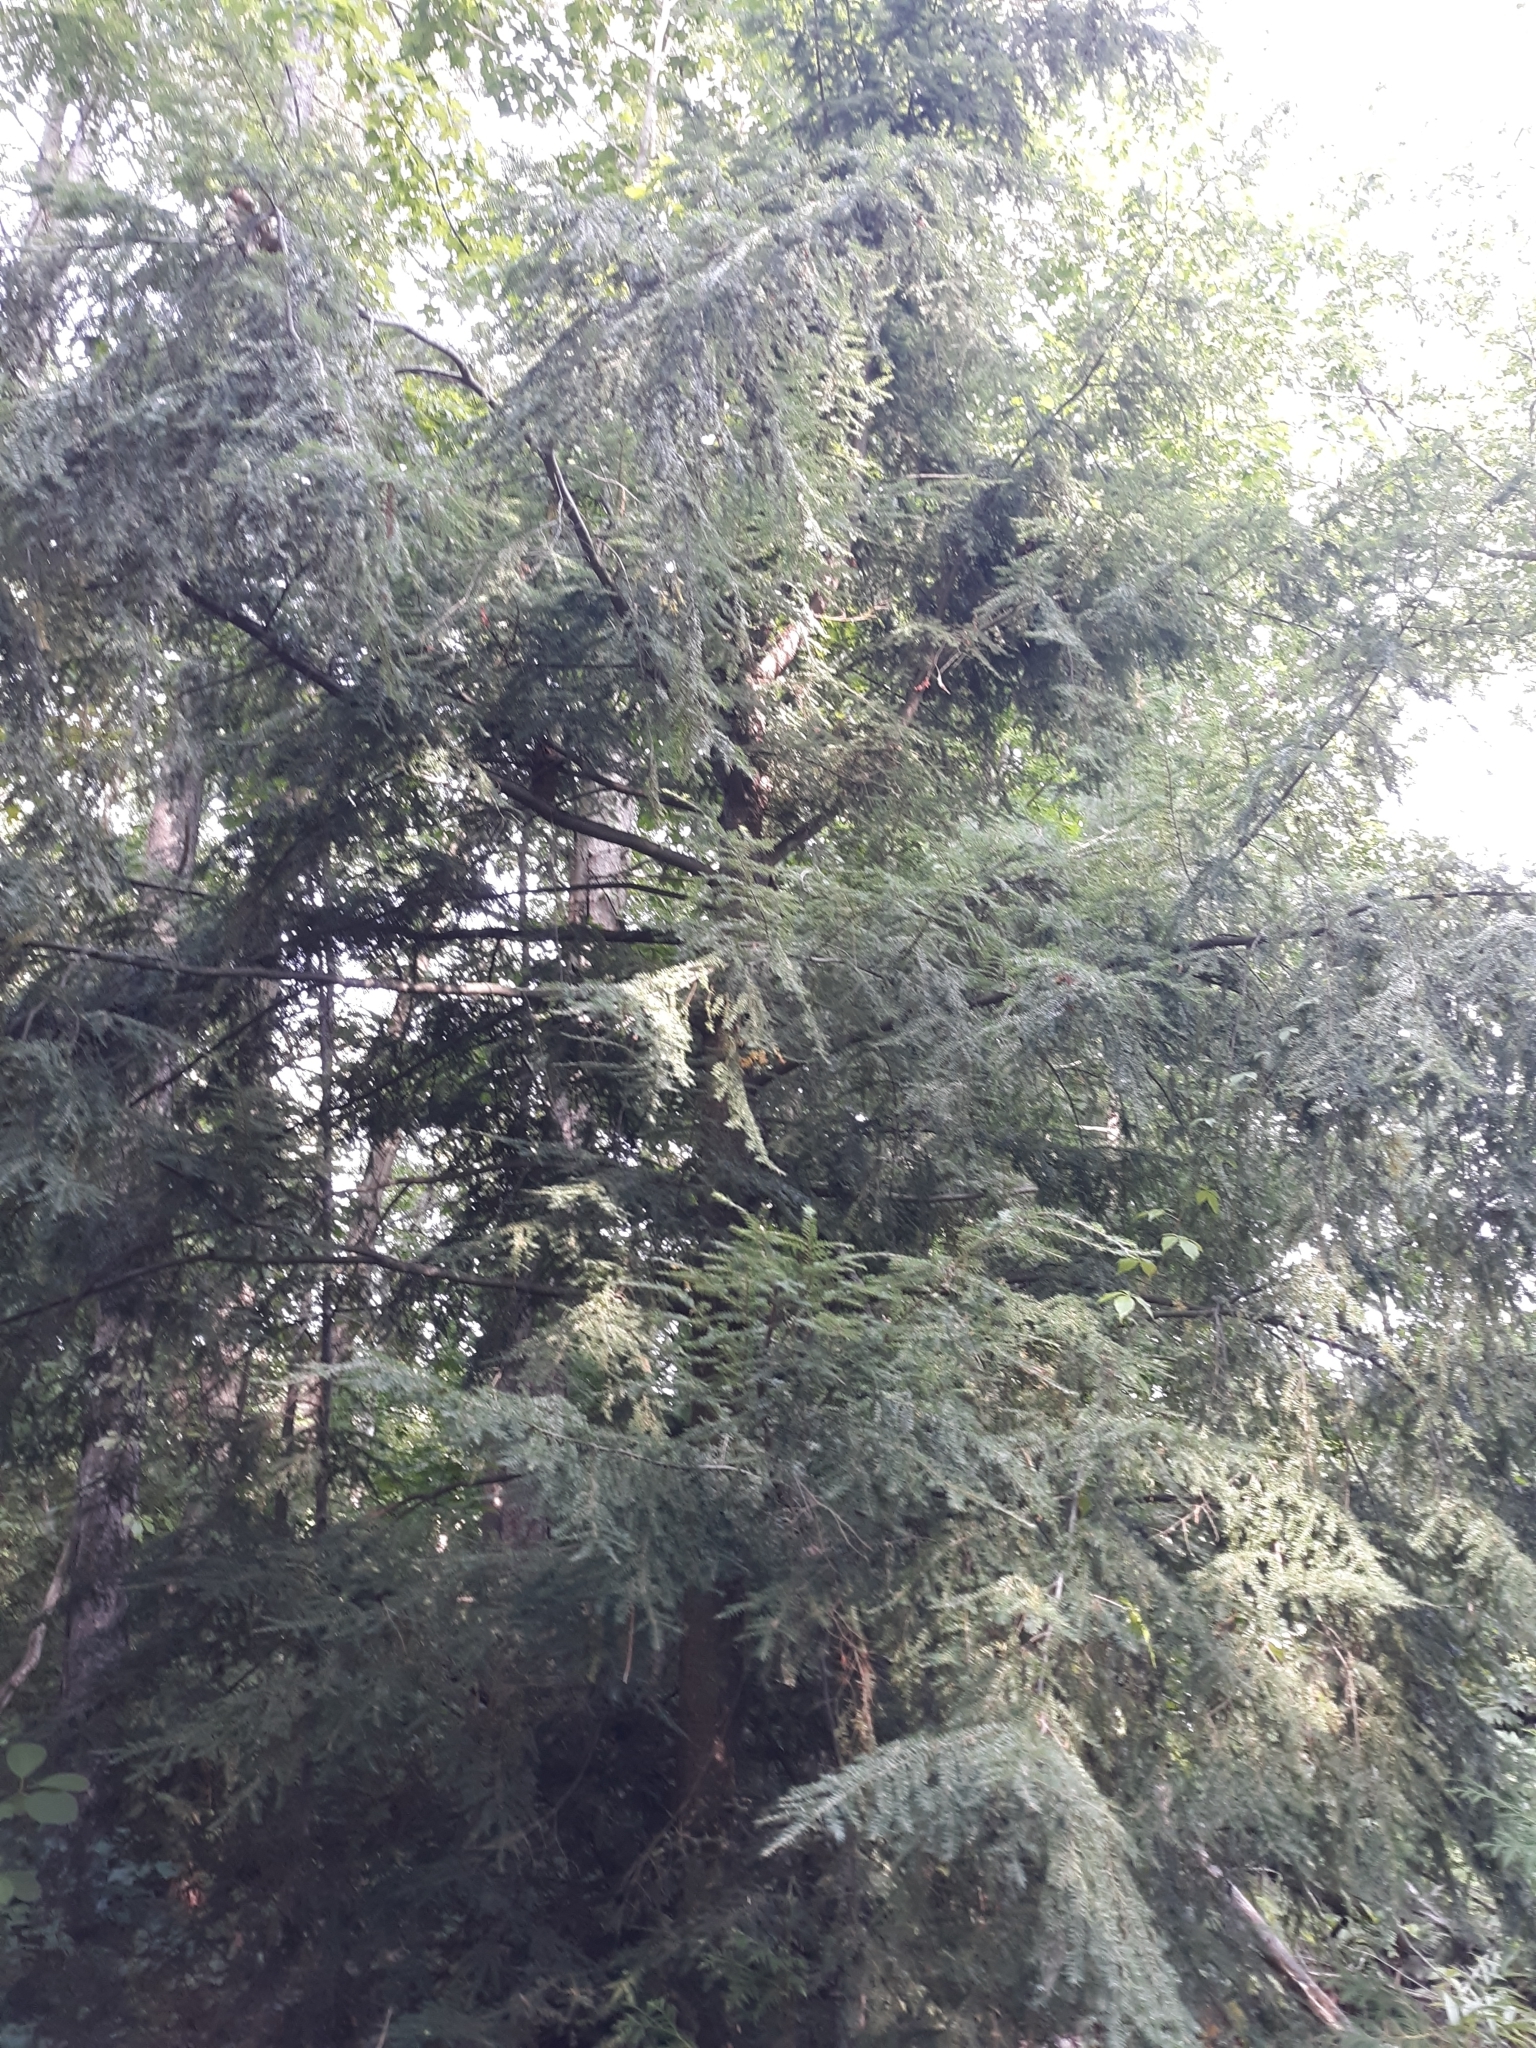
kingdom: Plantae
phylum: Tracheophyta
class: Pinopsida
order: Pinales
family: Pinaceae
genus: Tsuga
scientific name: Tsuga canadensis
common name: Eastern hemlock
